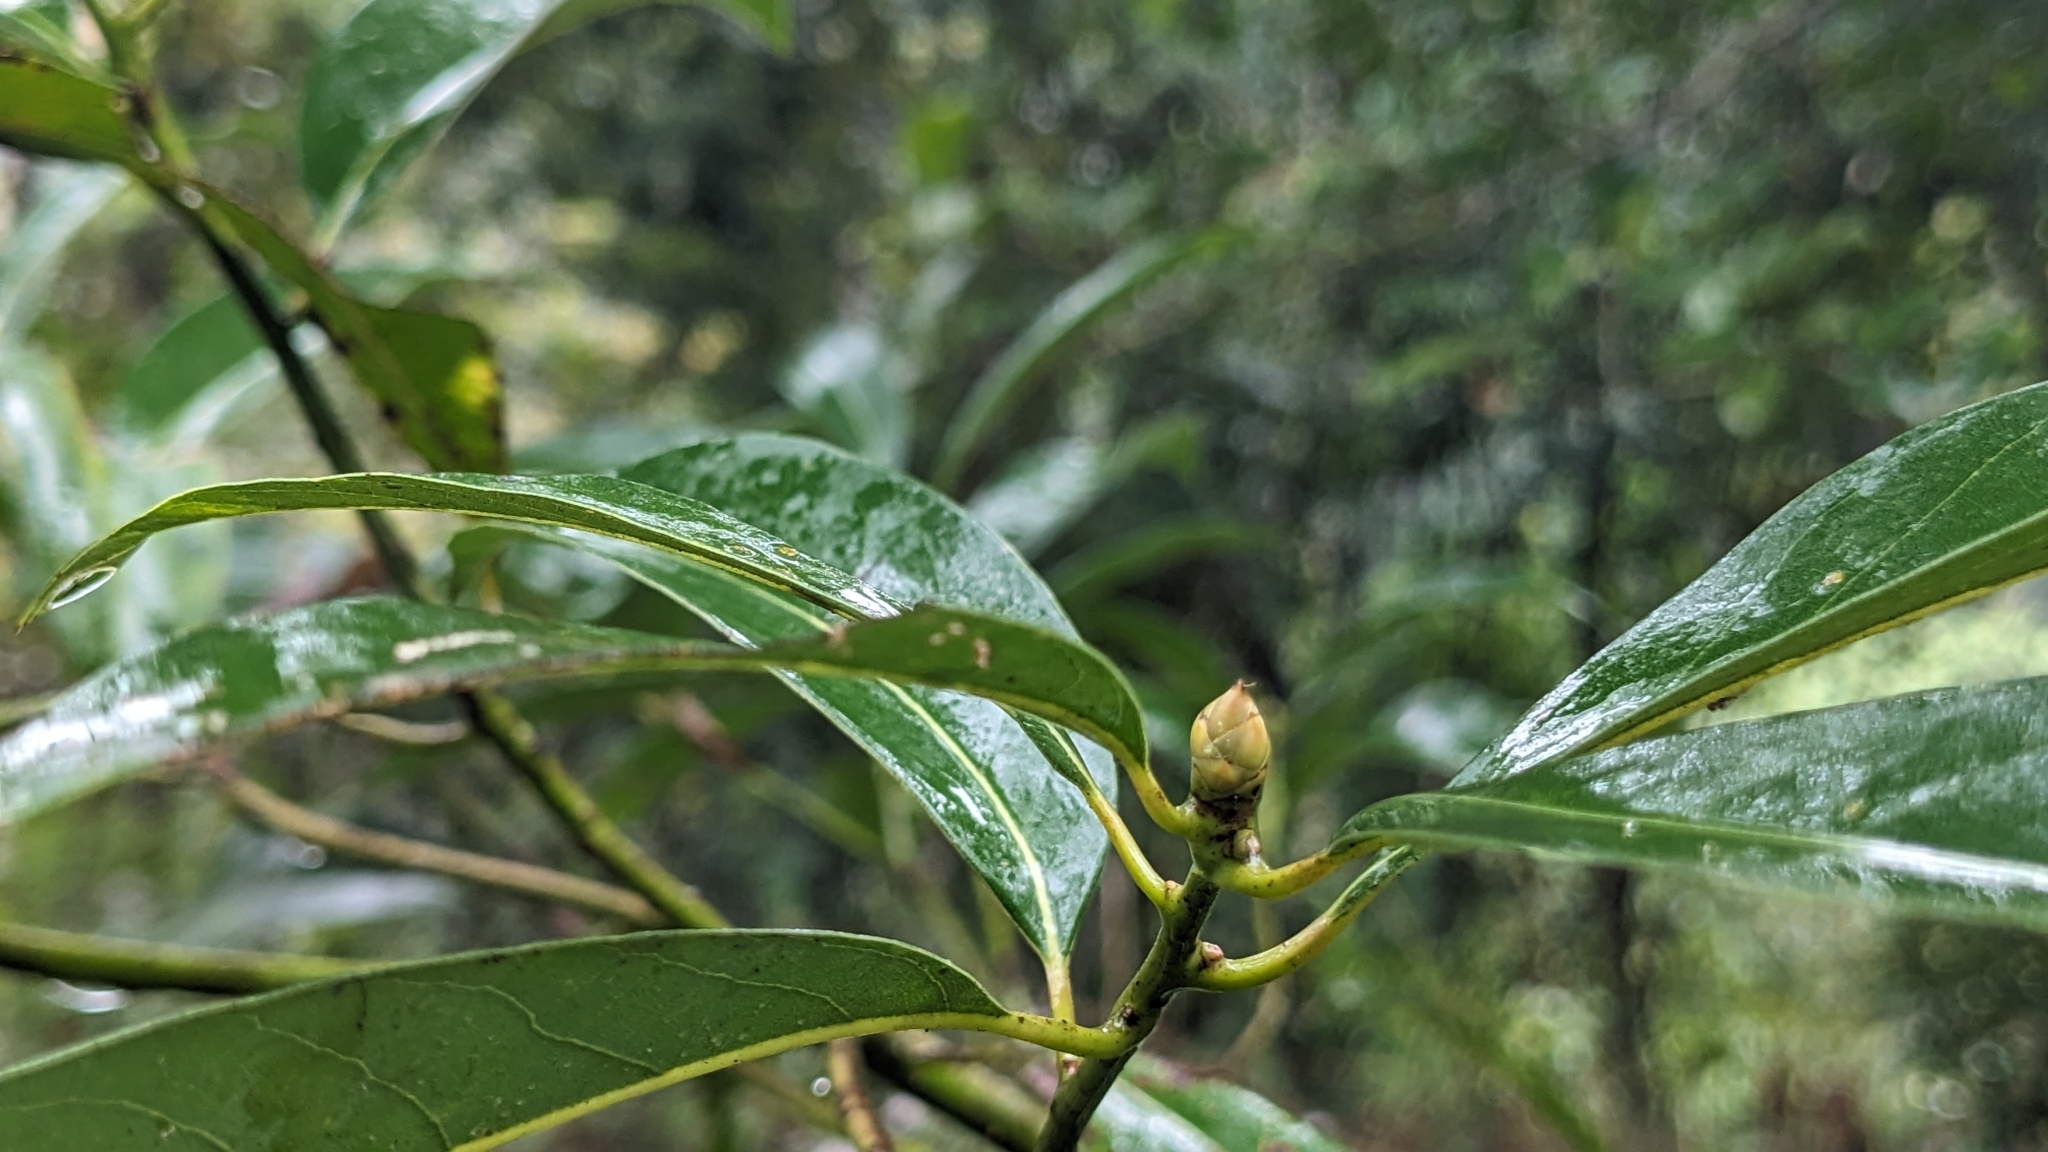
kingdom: Plantae
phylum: Tracheophyta
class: Magnoliopsida
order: Laurales
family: Lauraceae
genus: Machilus
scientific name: Machilus zuihoensis
